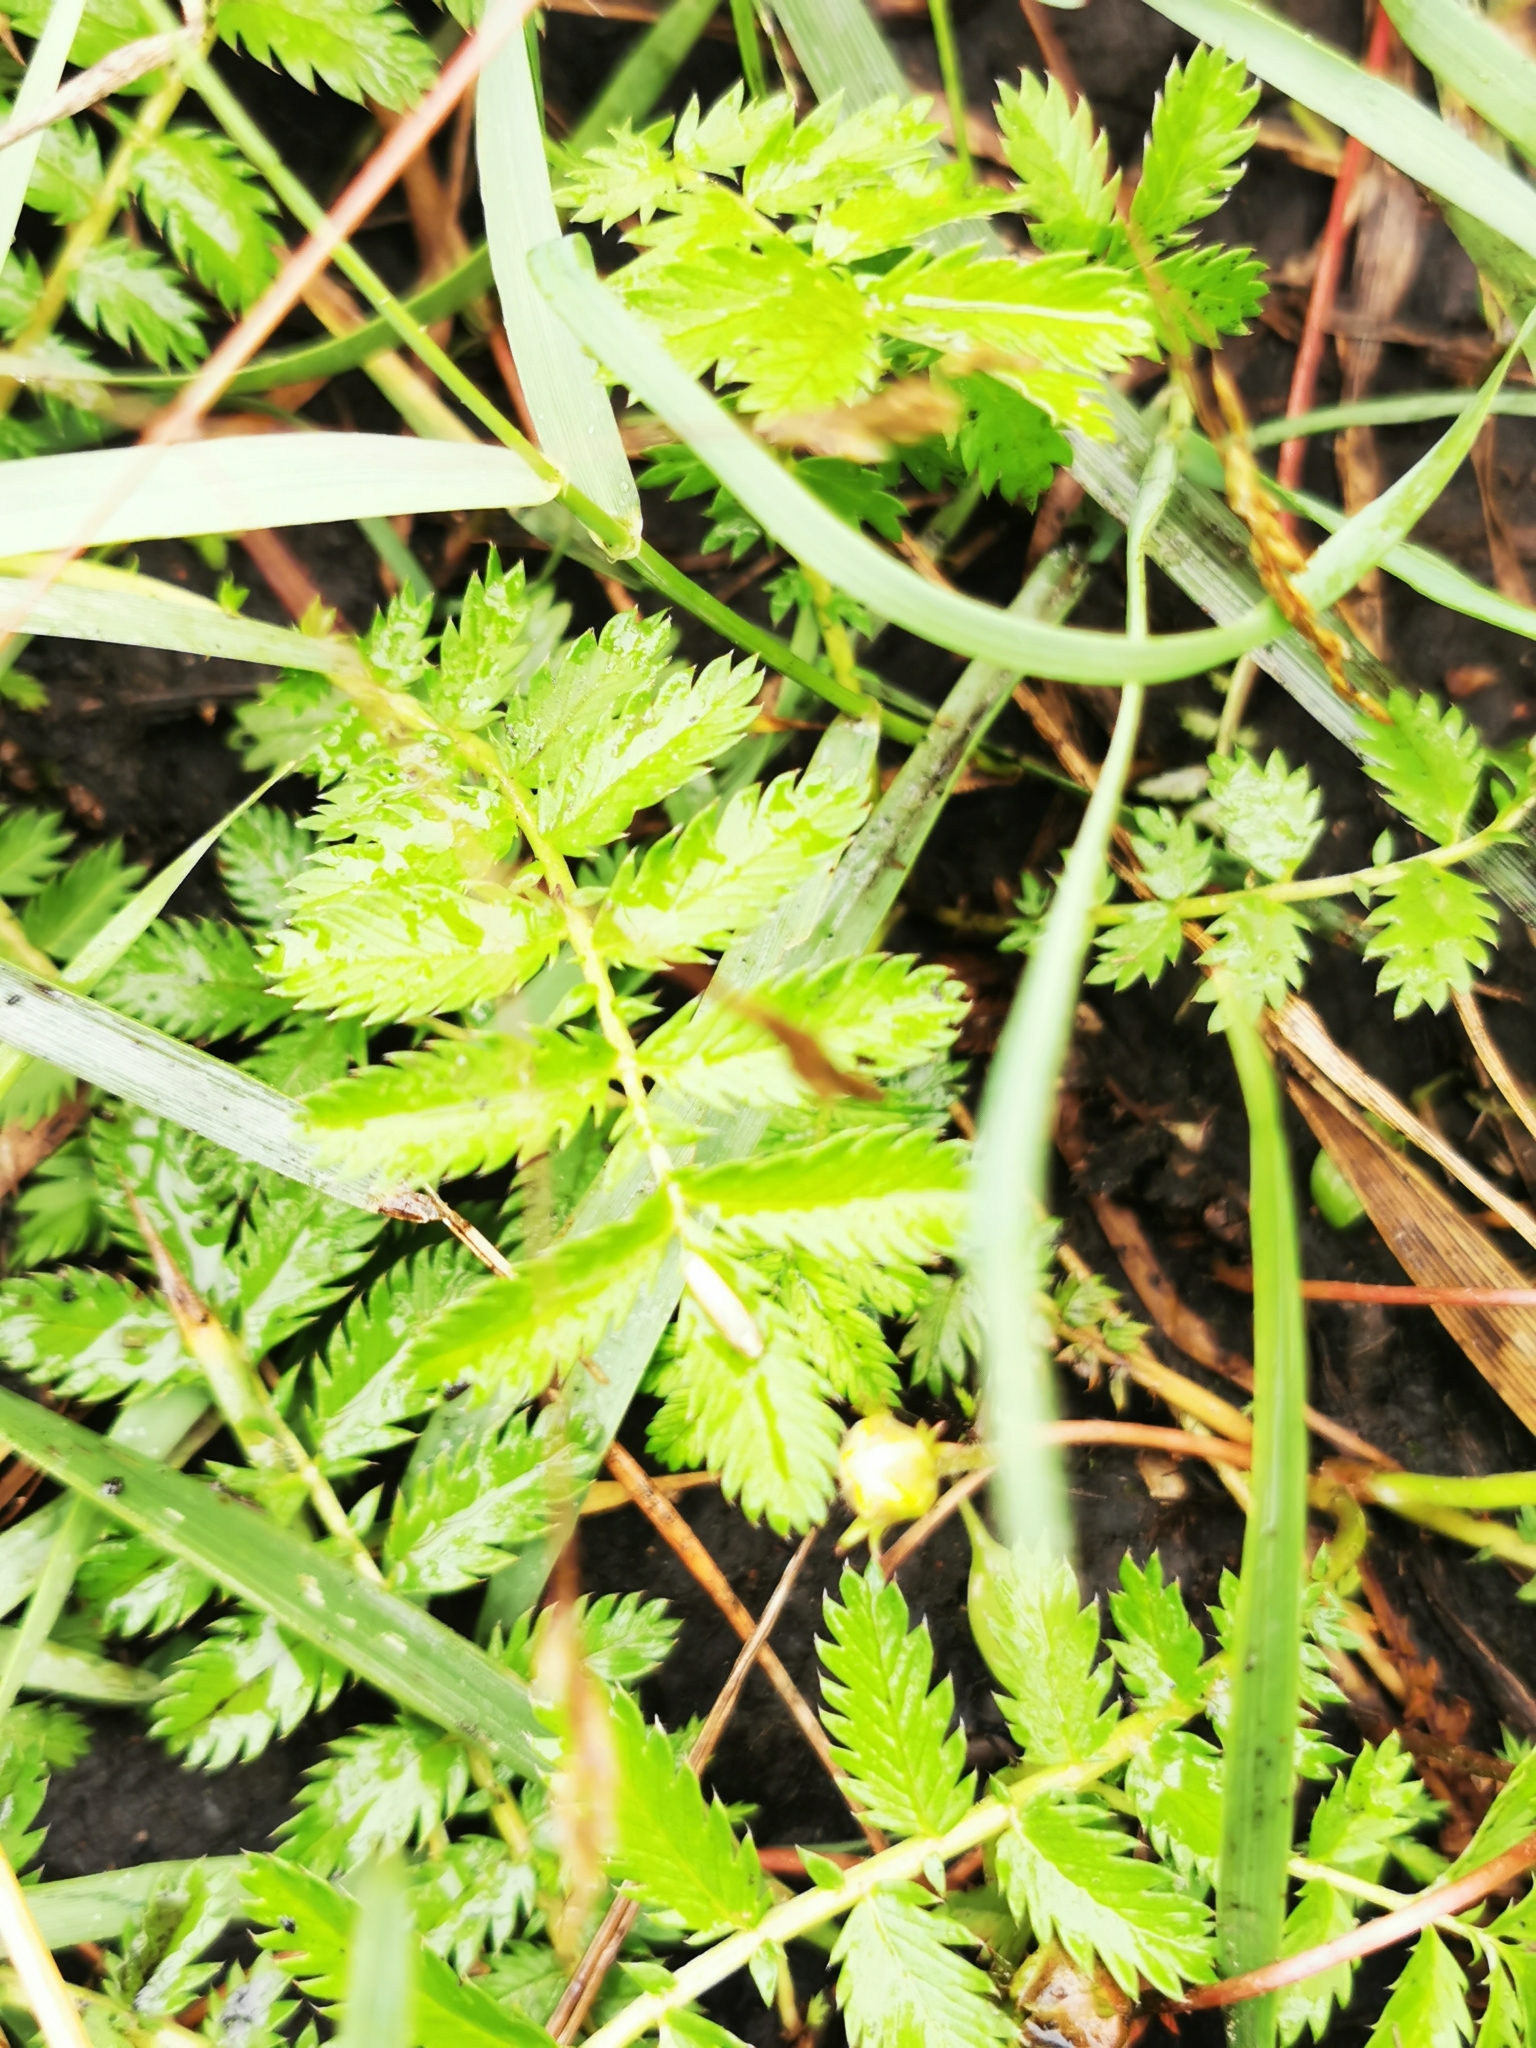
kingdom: Plantae
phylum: Tracheophyta
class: Magnoliopsida
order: Rosales
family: Rosaceae
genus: Argentina
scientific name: Argentina anserina
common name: Common silverweed
